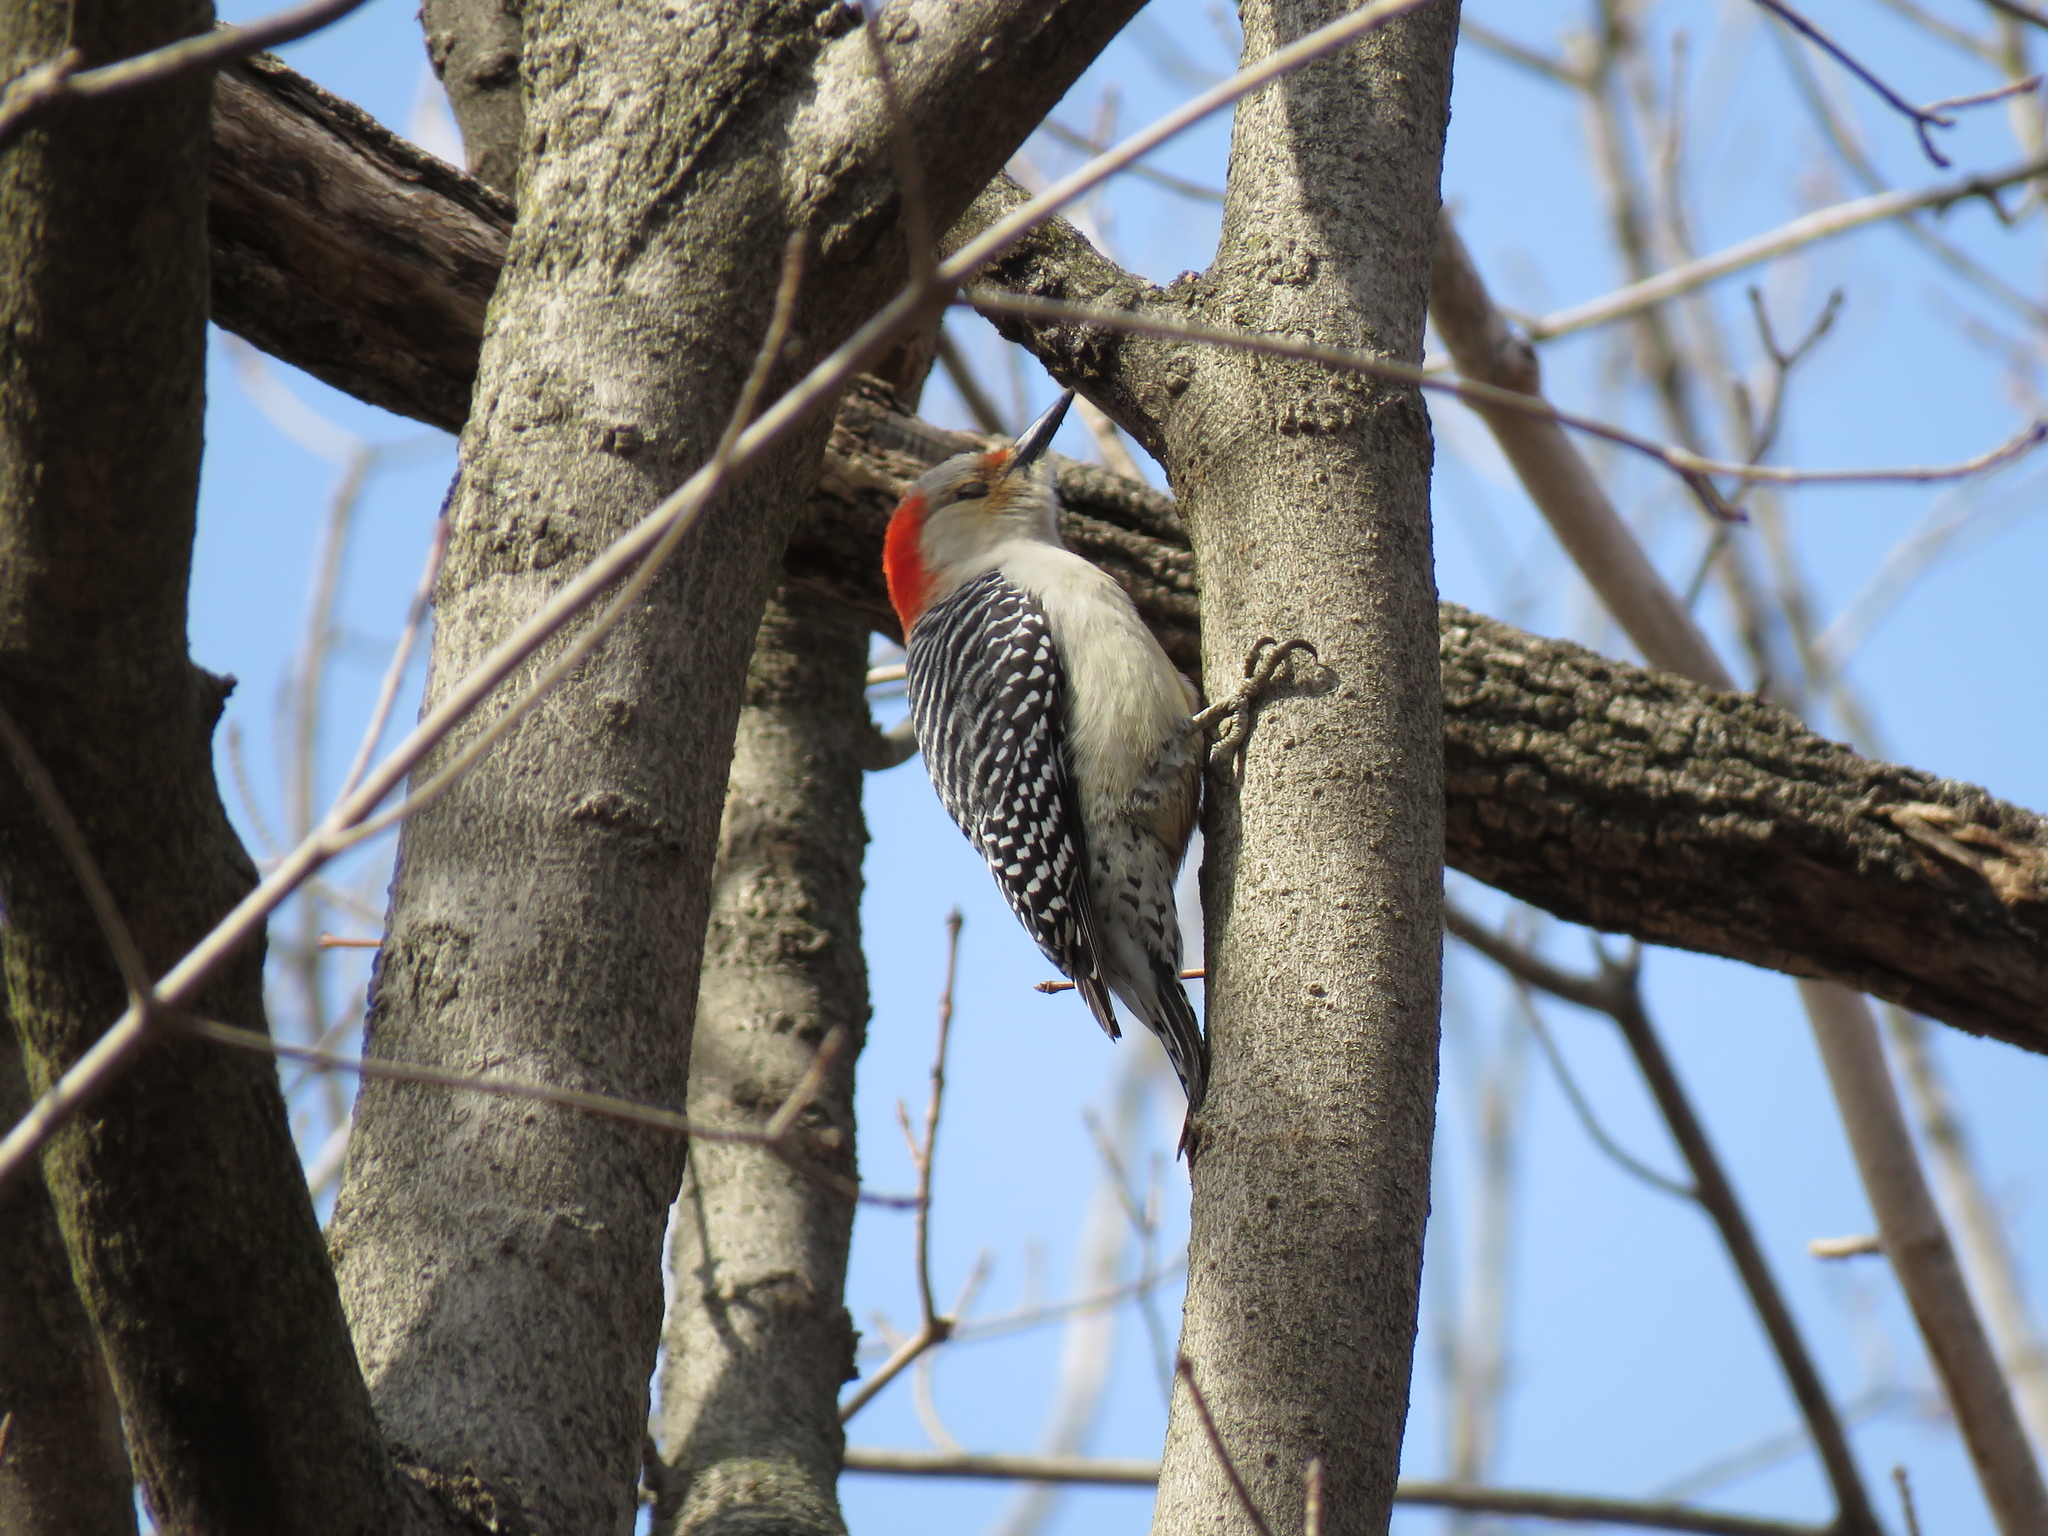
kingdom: Animalia
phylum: Chordata
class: Aves
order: Piciformes
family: Picidae
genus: Melanerpes
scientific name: Melanerpes carolinus
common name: Red-bellied woodpecker
